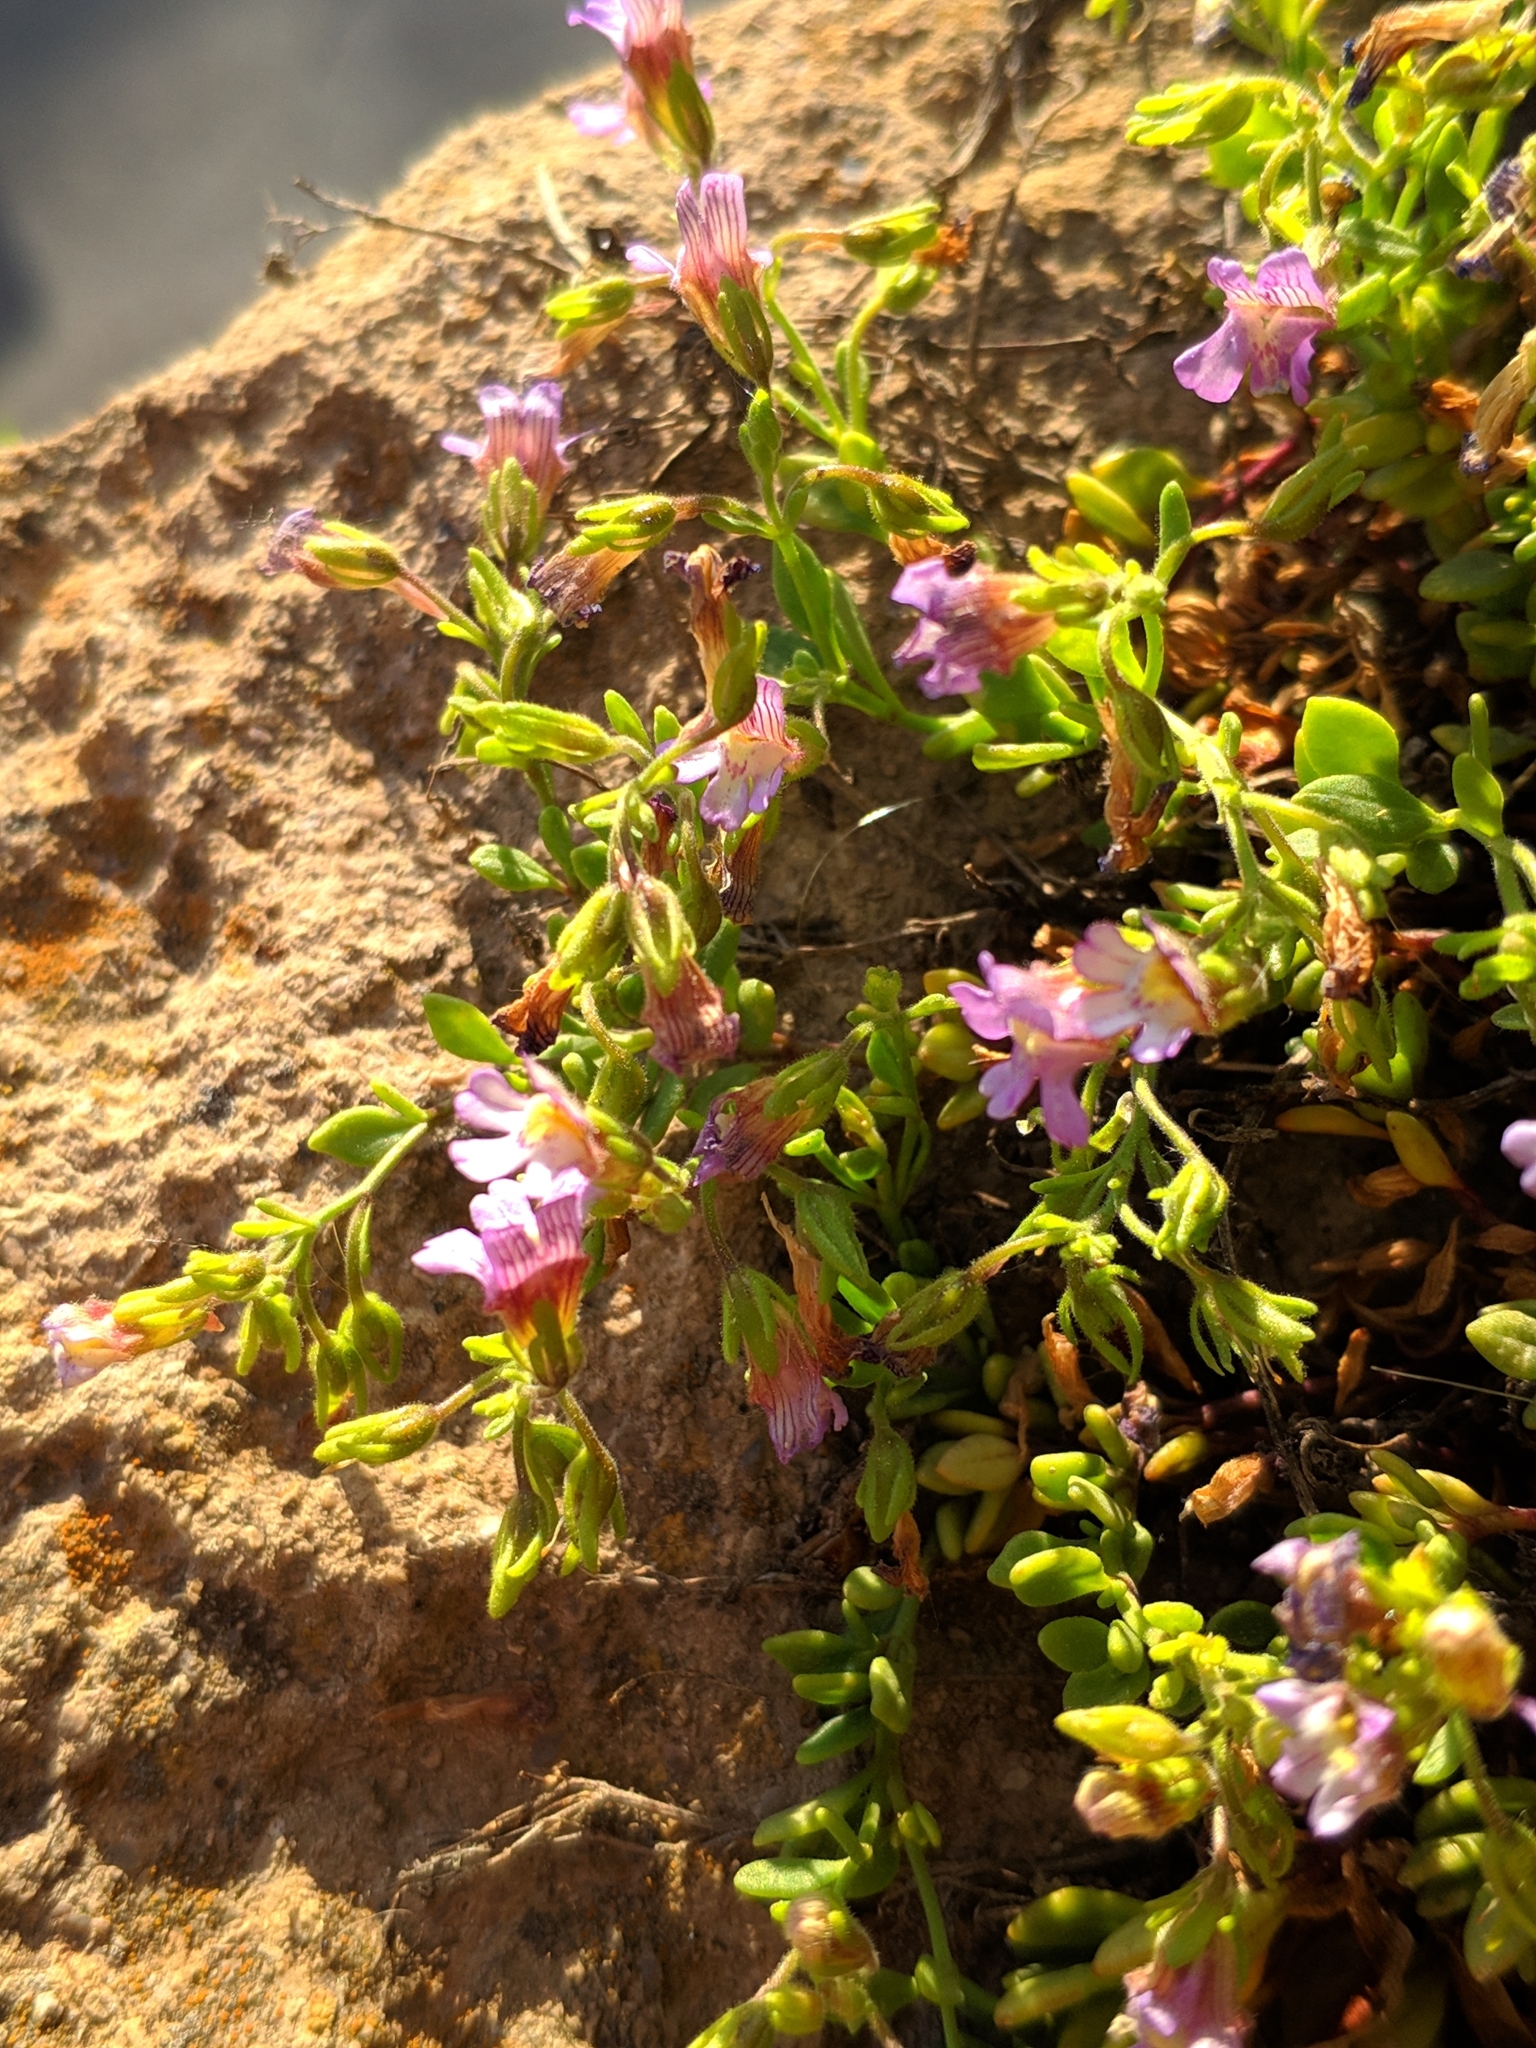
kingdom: Plantae
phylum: Tracheophyta
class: Magnoliopsida
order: Lamiales
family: Plantaginaceae
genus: Chaenorhinum
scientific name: Chaenorhinum origanifolium
